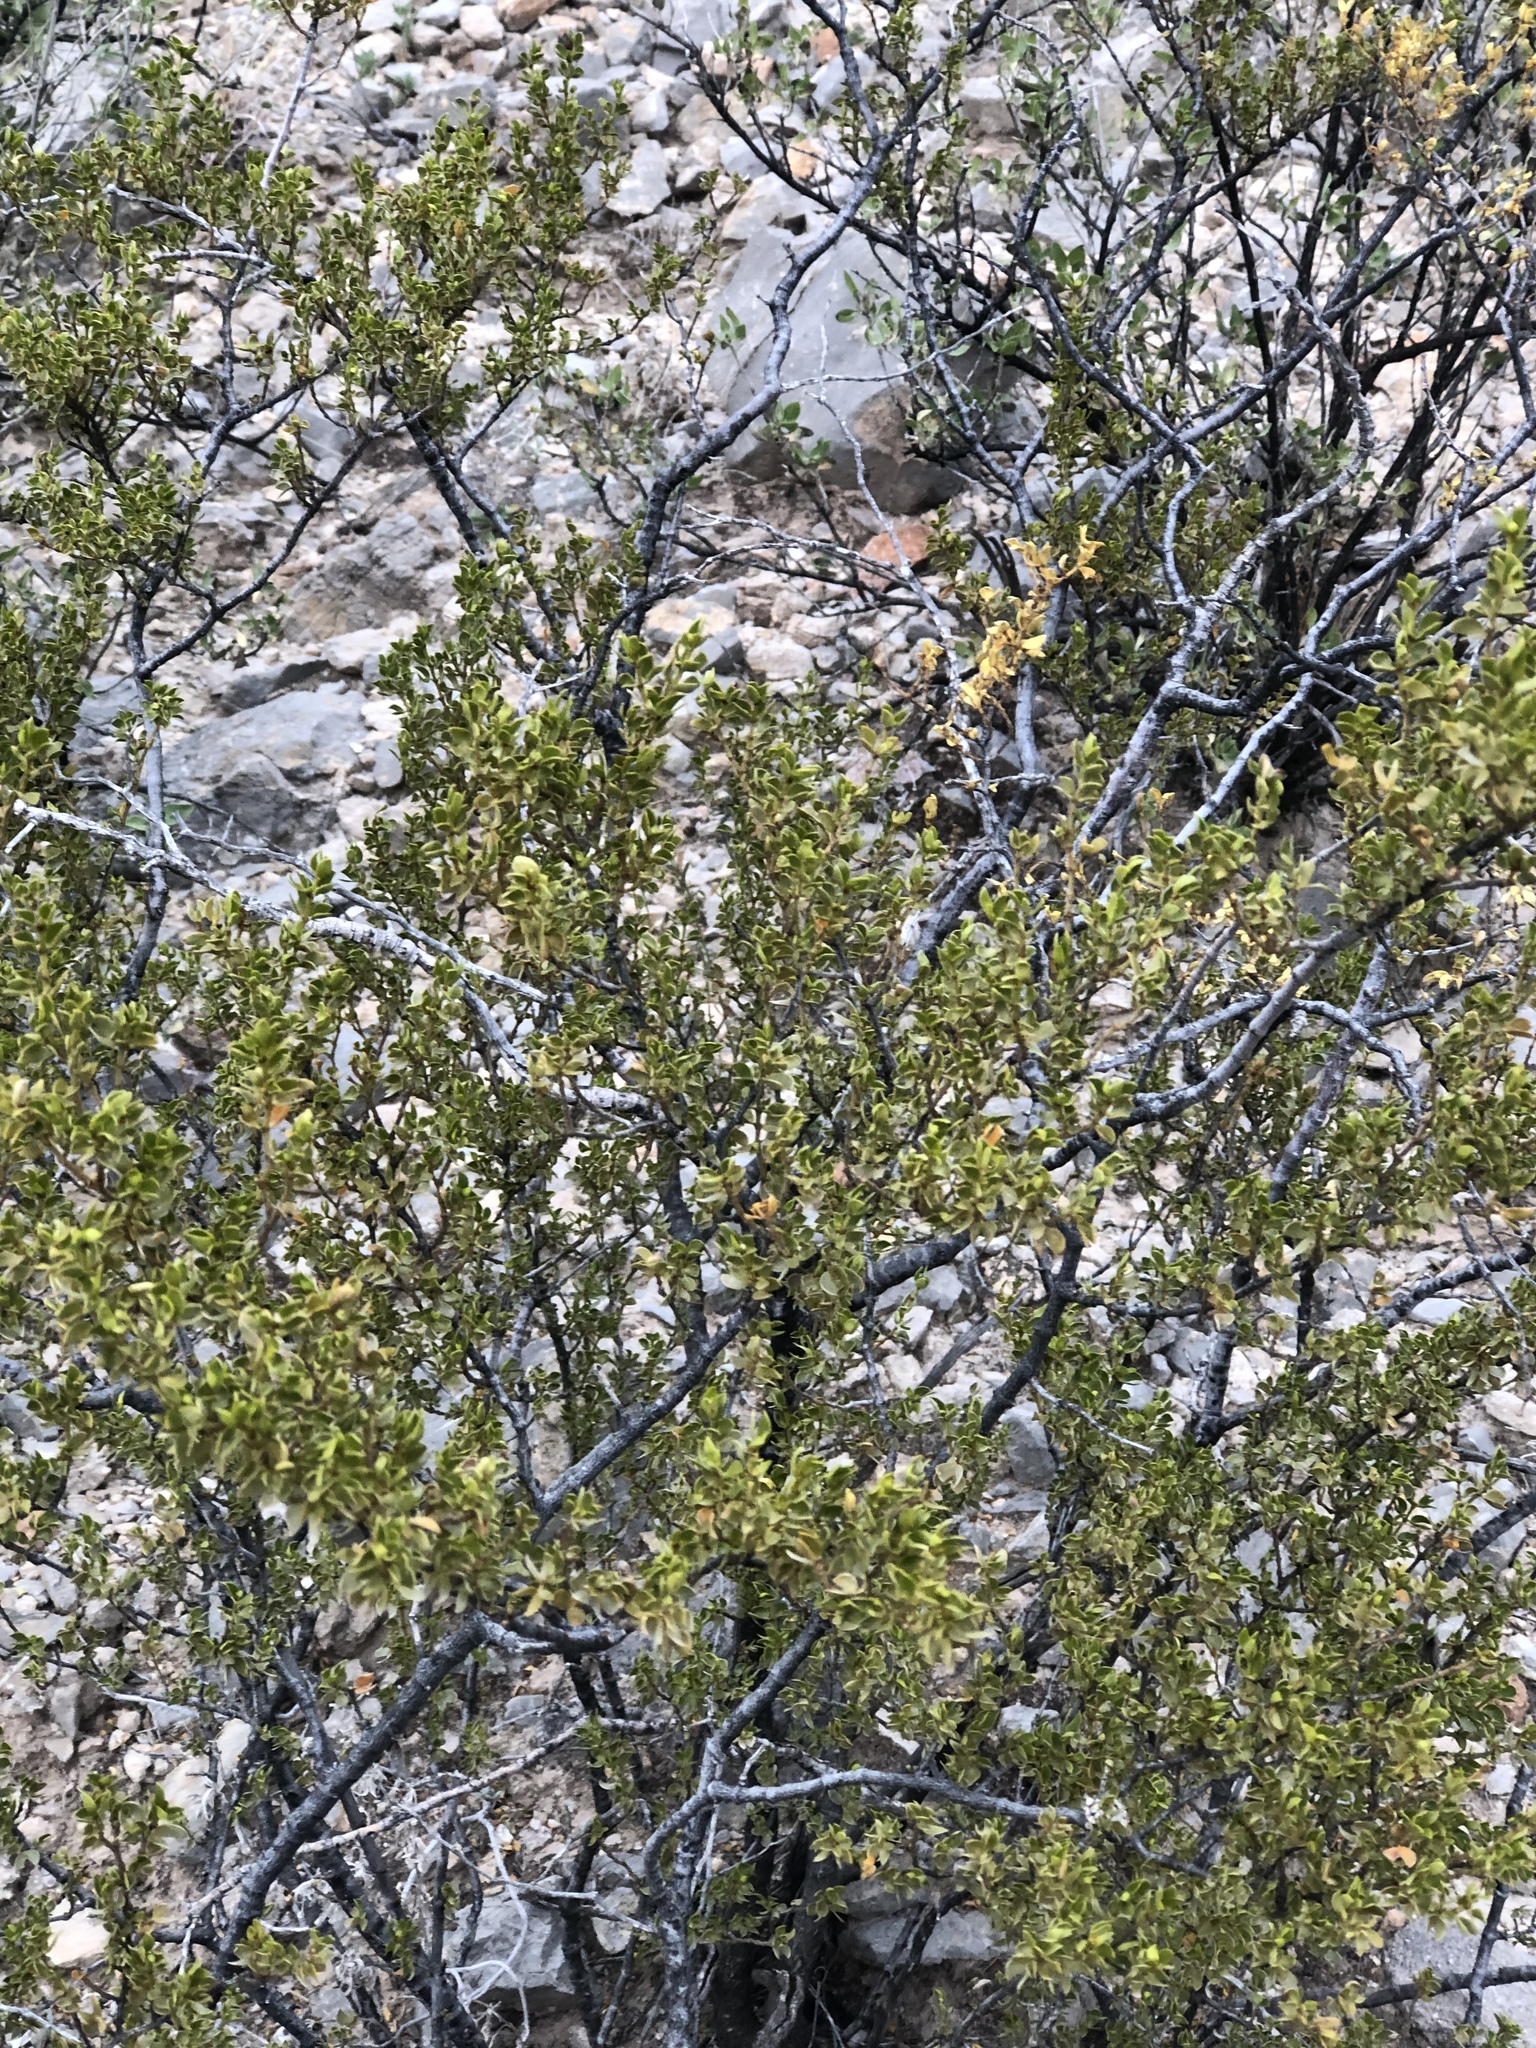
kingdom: Plantae
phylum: Tracheophyta
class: Magnoliopsida
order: Zygophyllales
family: Zygophyllaceae
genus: Larrea
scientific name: Larrea tridentata
